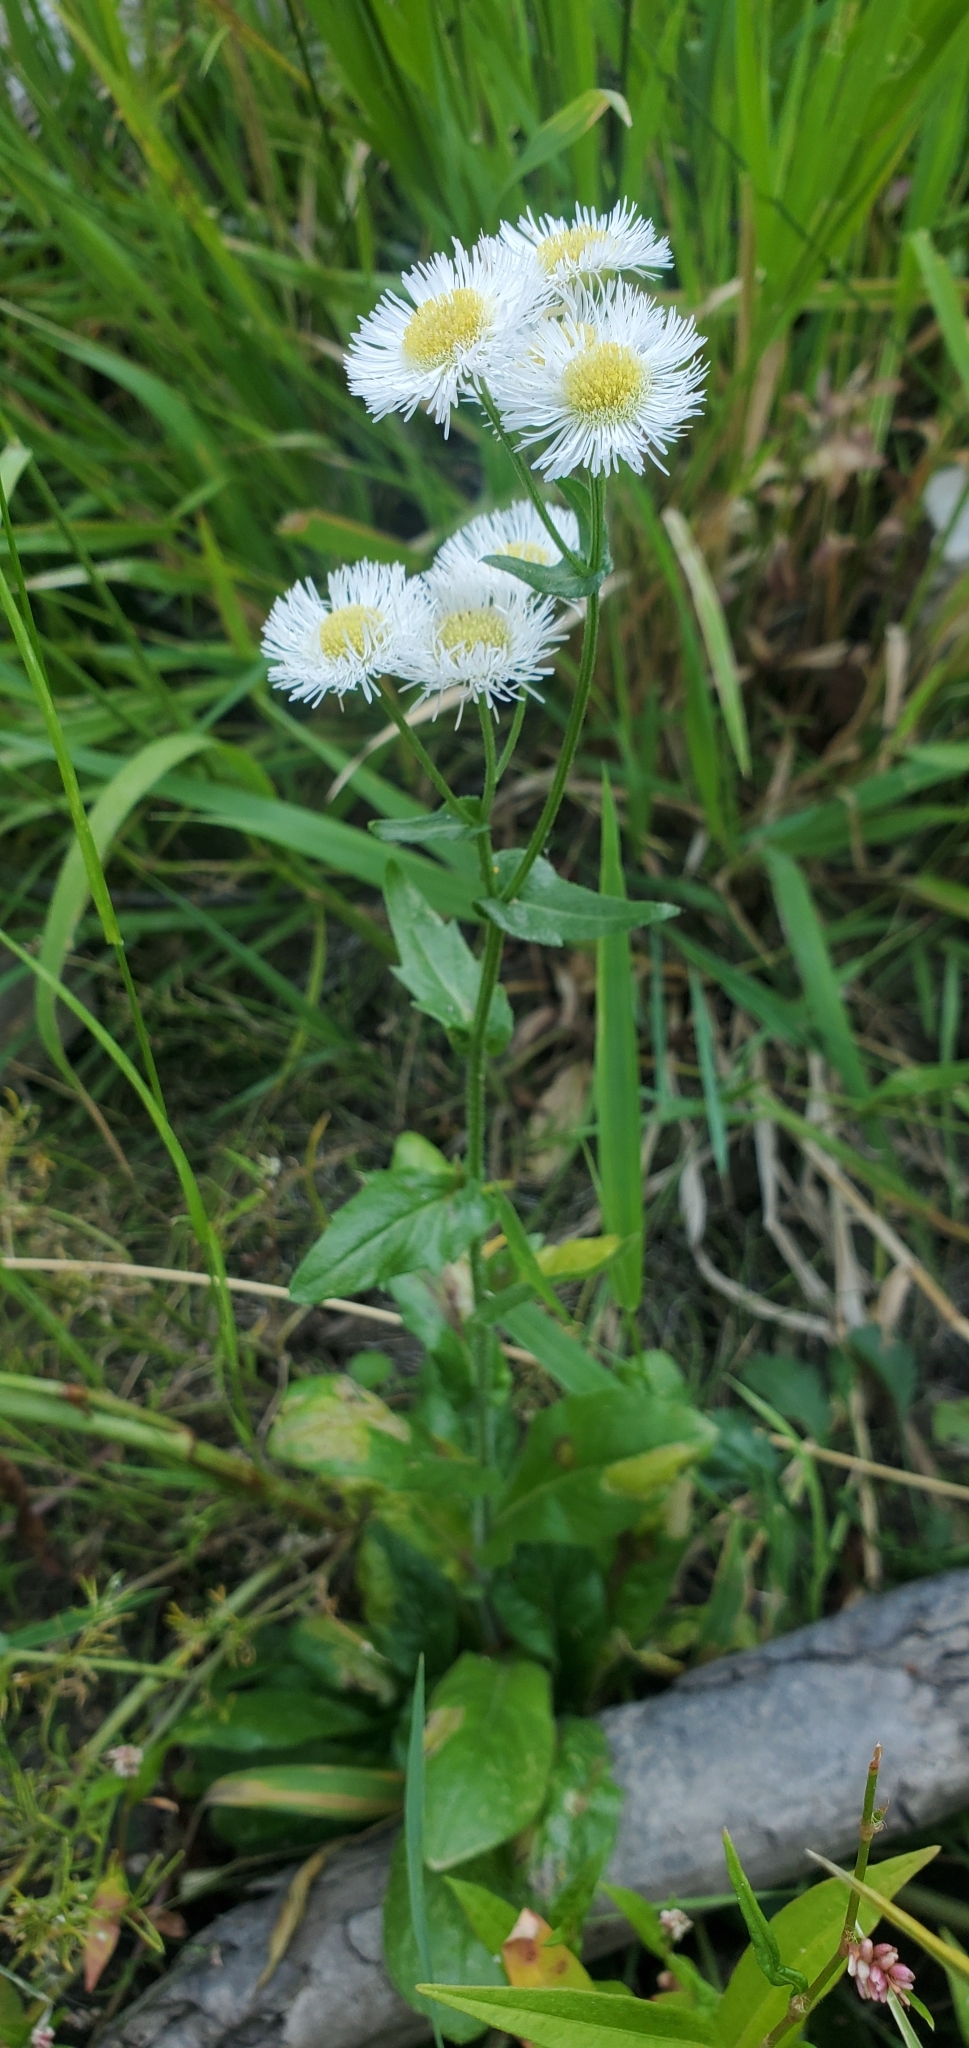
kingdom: Plantae
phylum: Tracheophyta
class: Magnoliopsida
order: Asterales
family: Asteraceae
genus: Erigeron
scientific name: Erigeron philadelphicus
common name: Robin's-plantain
